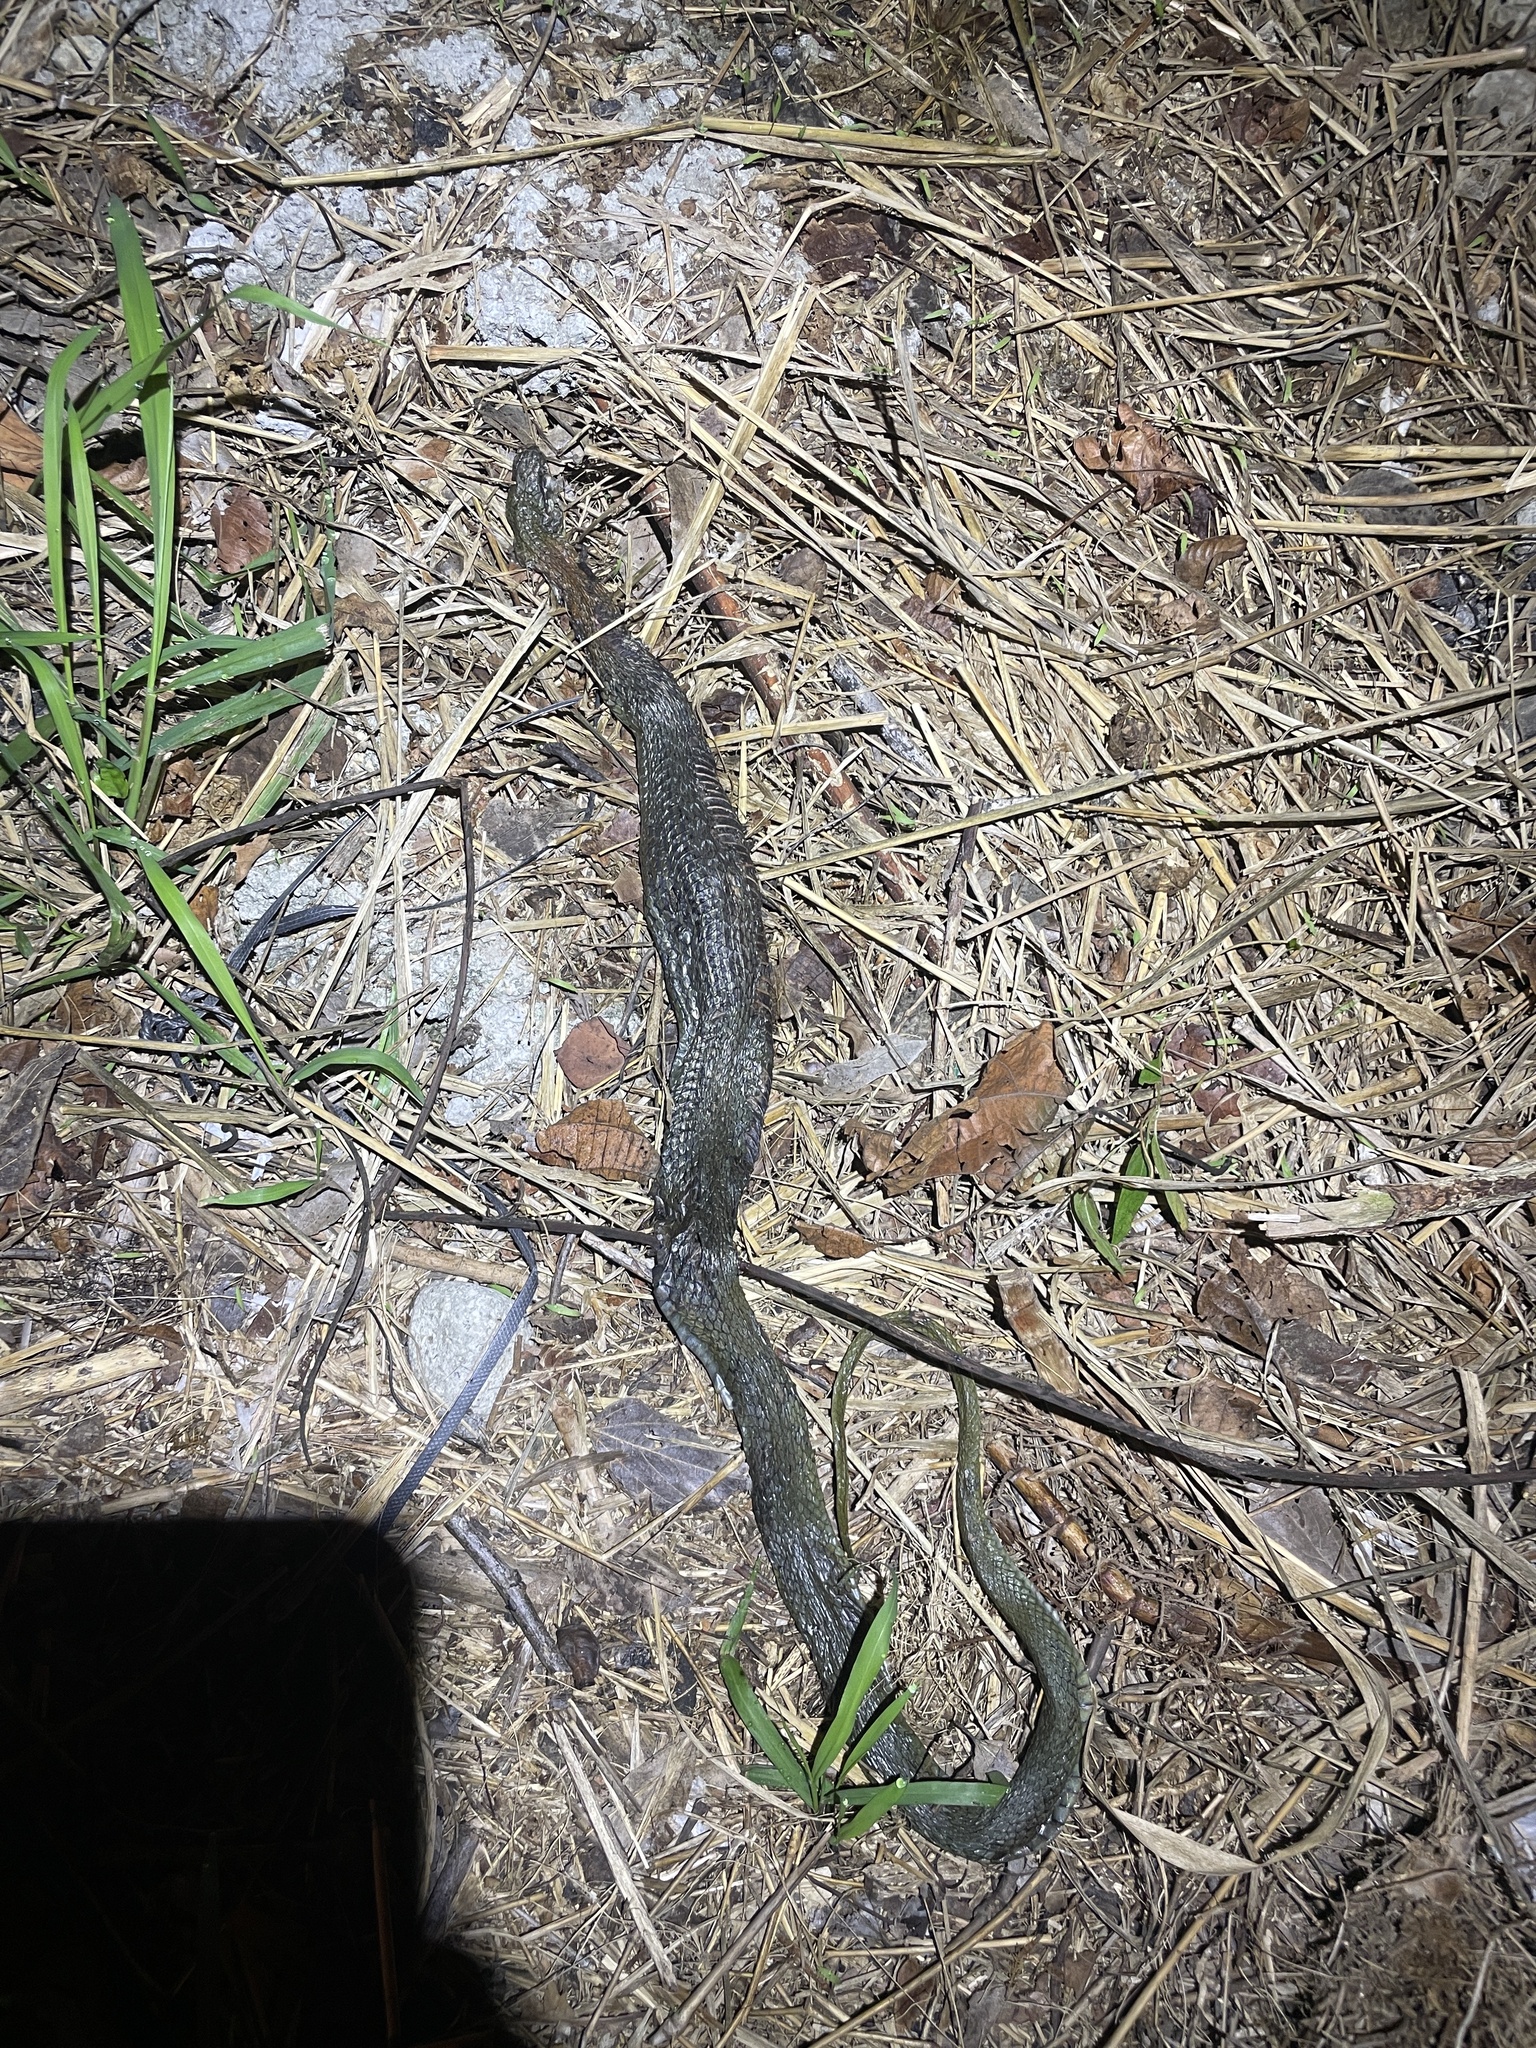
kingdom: Animalia
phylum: Chordata
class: Squamata
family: Colubridae
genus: Rhabdophis
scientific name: Rhabdophis helleri
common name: Heller’s red-necked keelback
